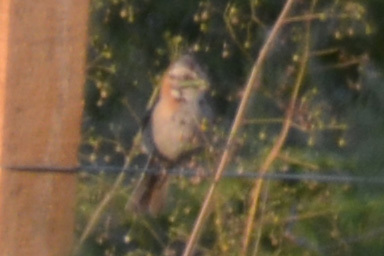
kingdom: Animalia
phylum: Chordata
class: Aves
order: Passeriformes
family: Passerellidae
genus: Zonotrichia
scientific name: Zonotrichia capensis
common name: Rufous-collared sparrow
